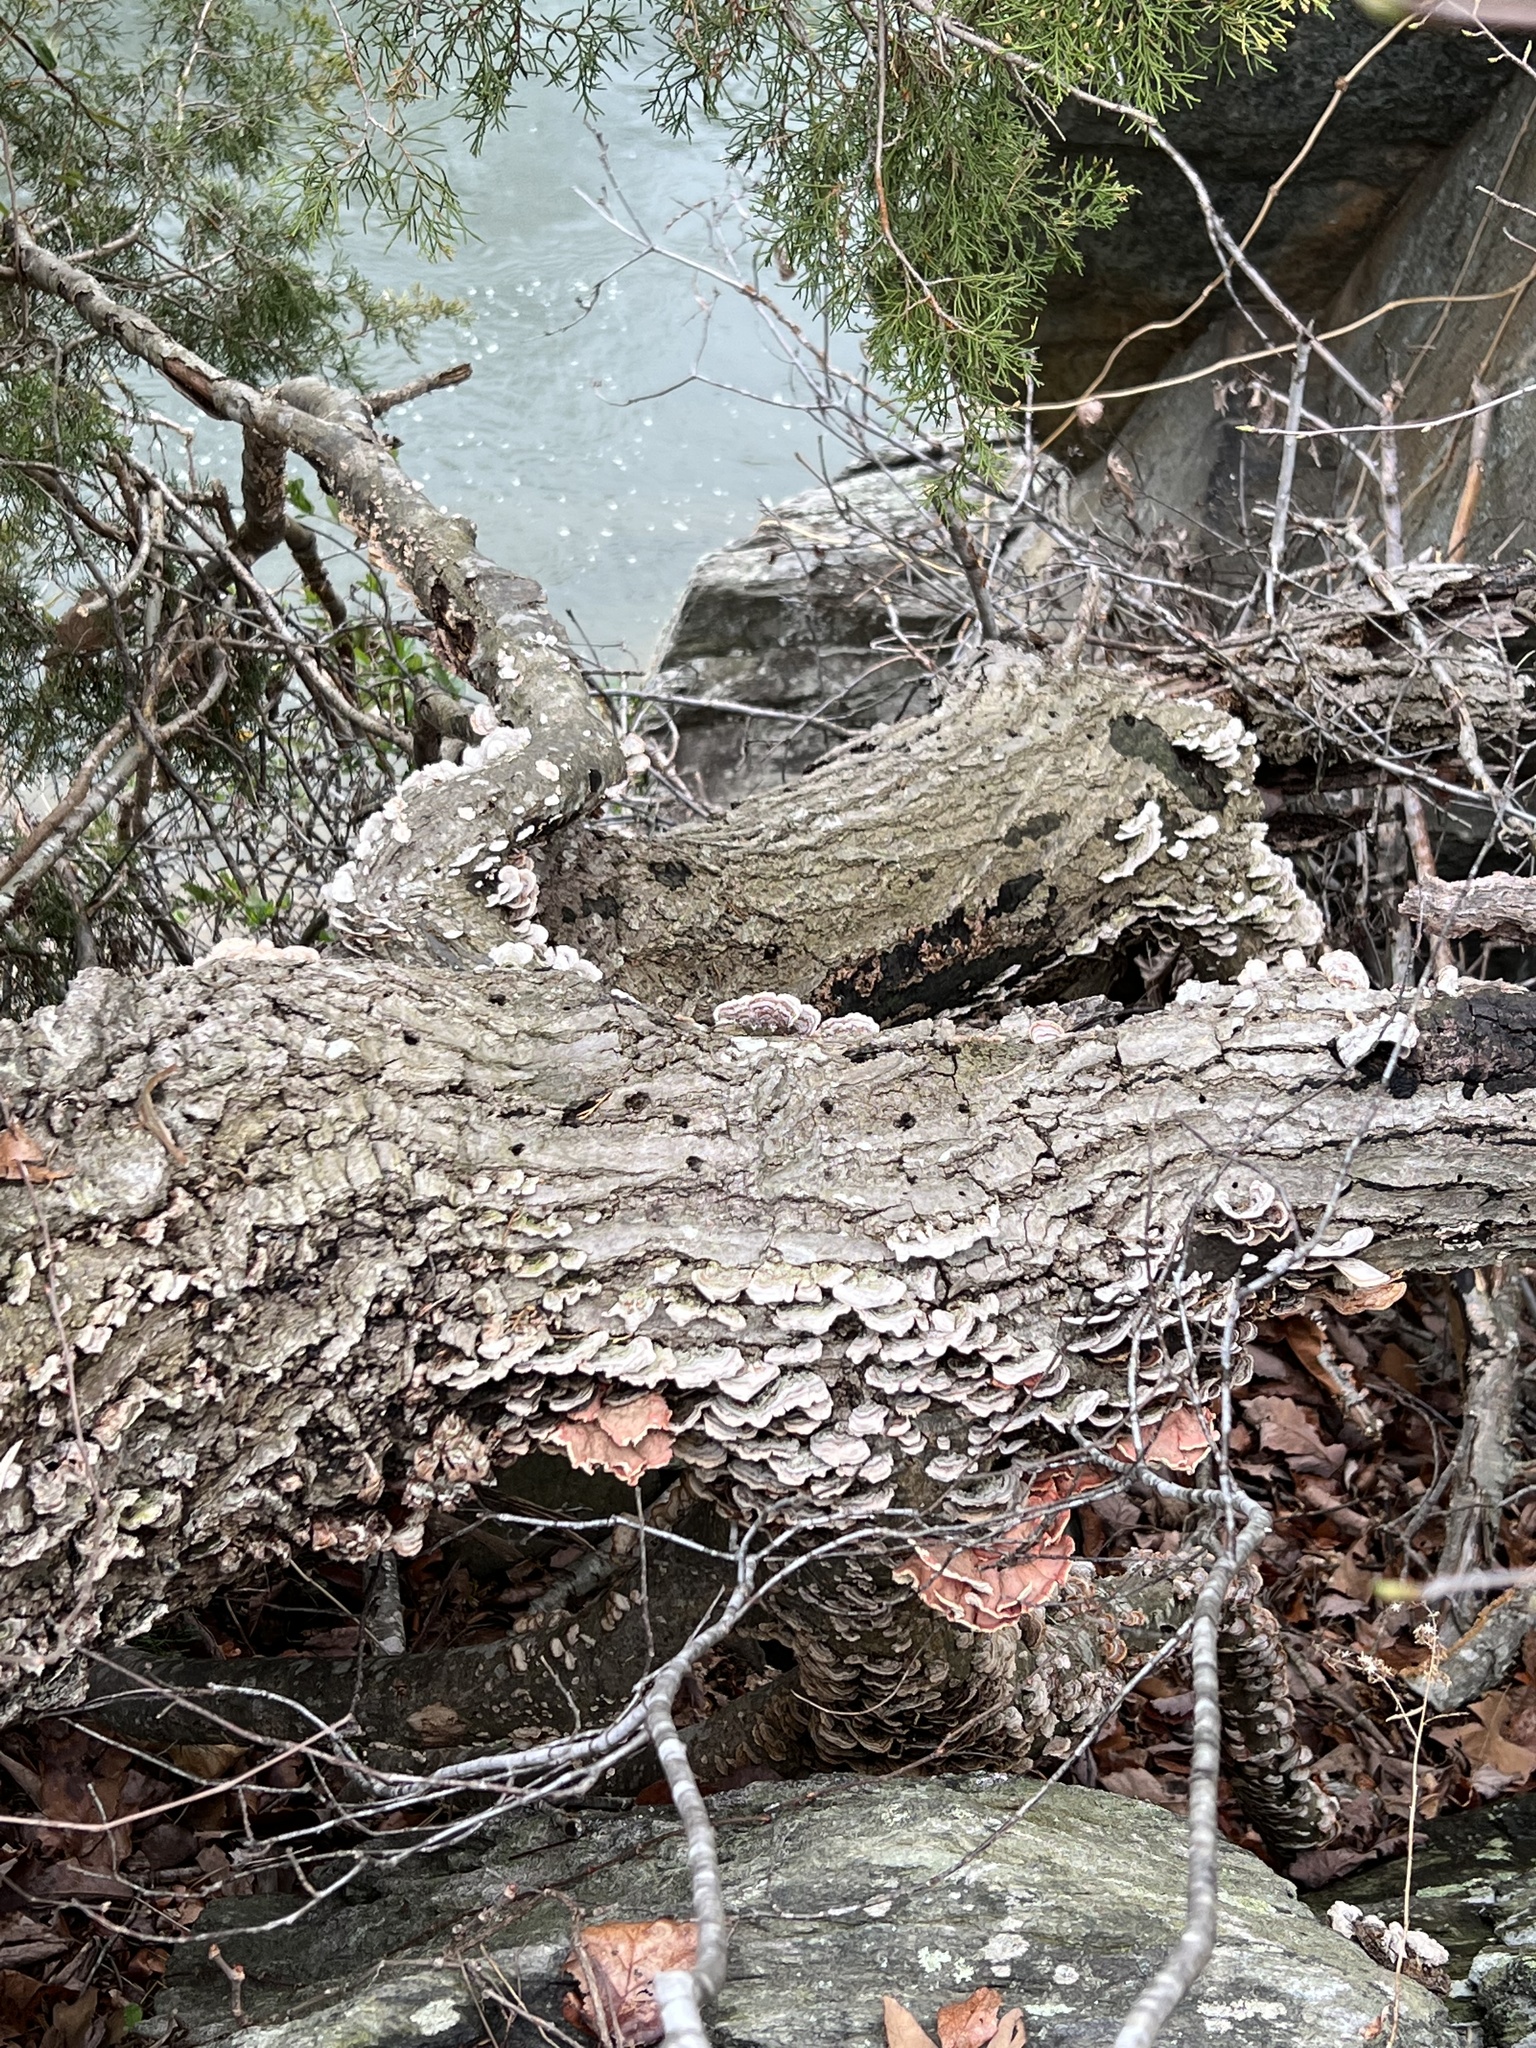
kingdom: Fungi
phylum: Basidiomycota
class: Agaricomycetes
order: Polyporales
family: Irpicaceae
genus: Byssomerulius
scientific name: Byssomerulius incarnatus
